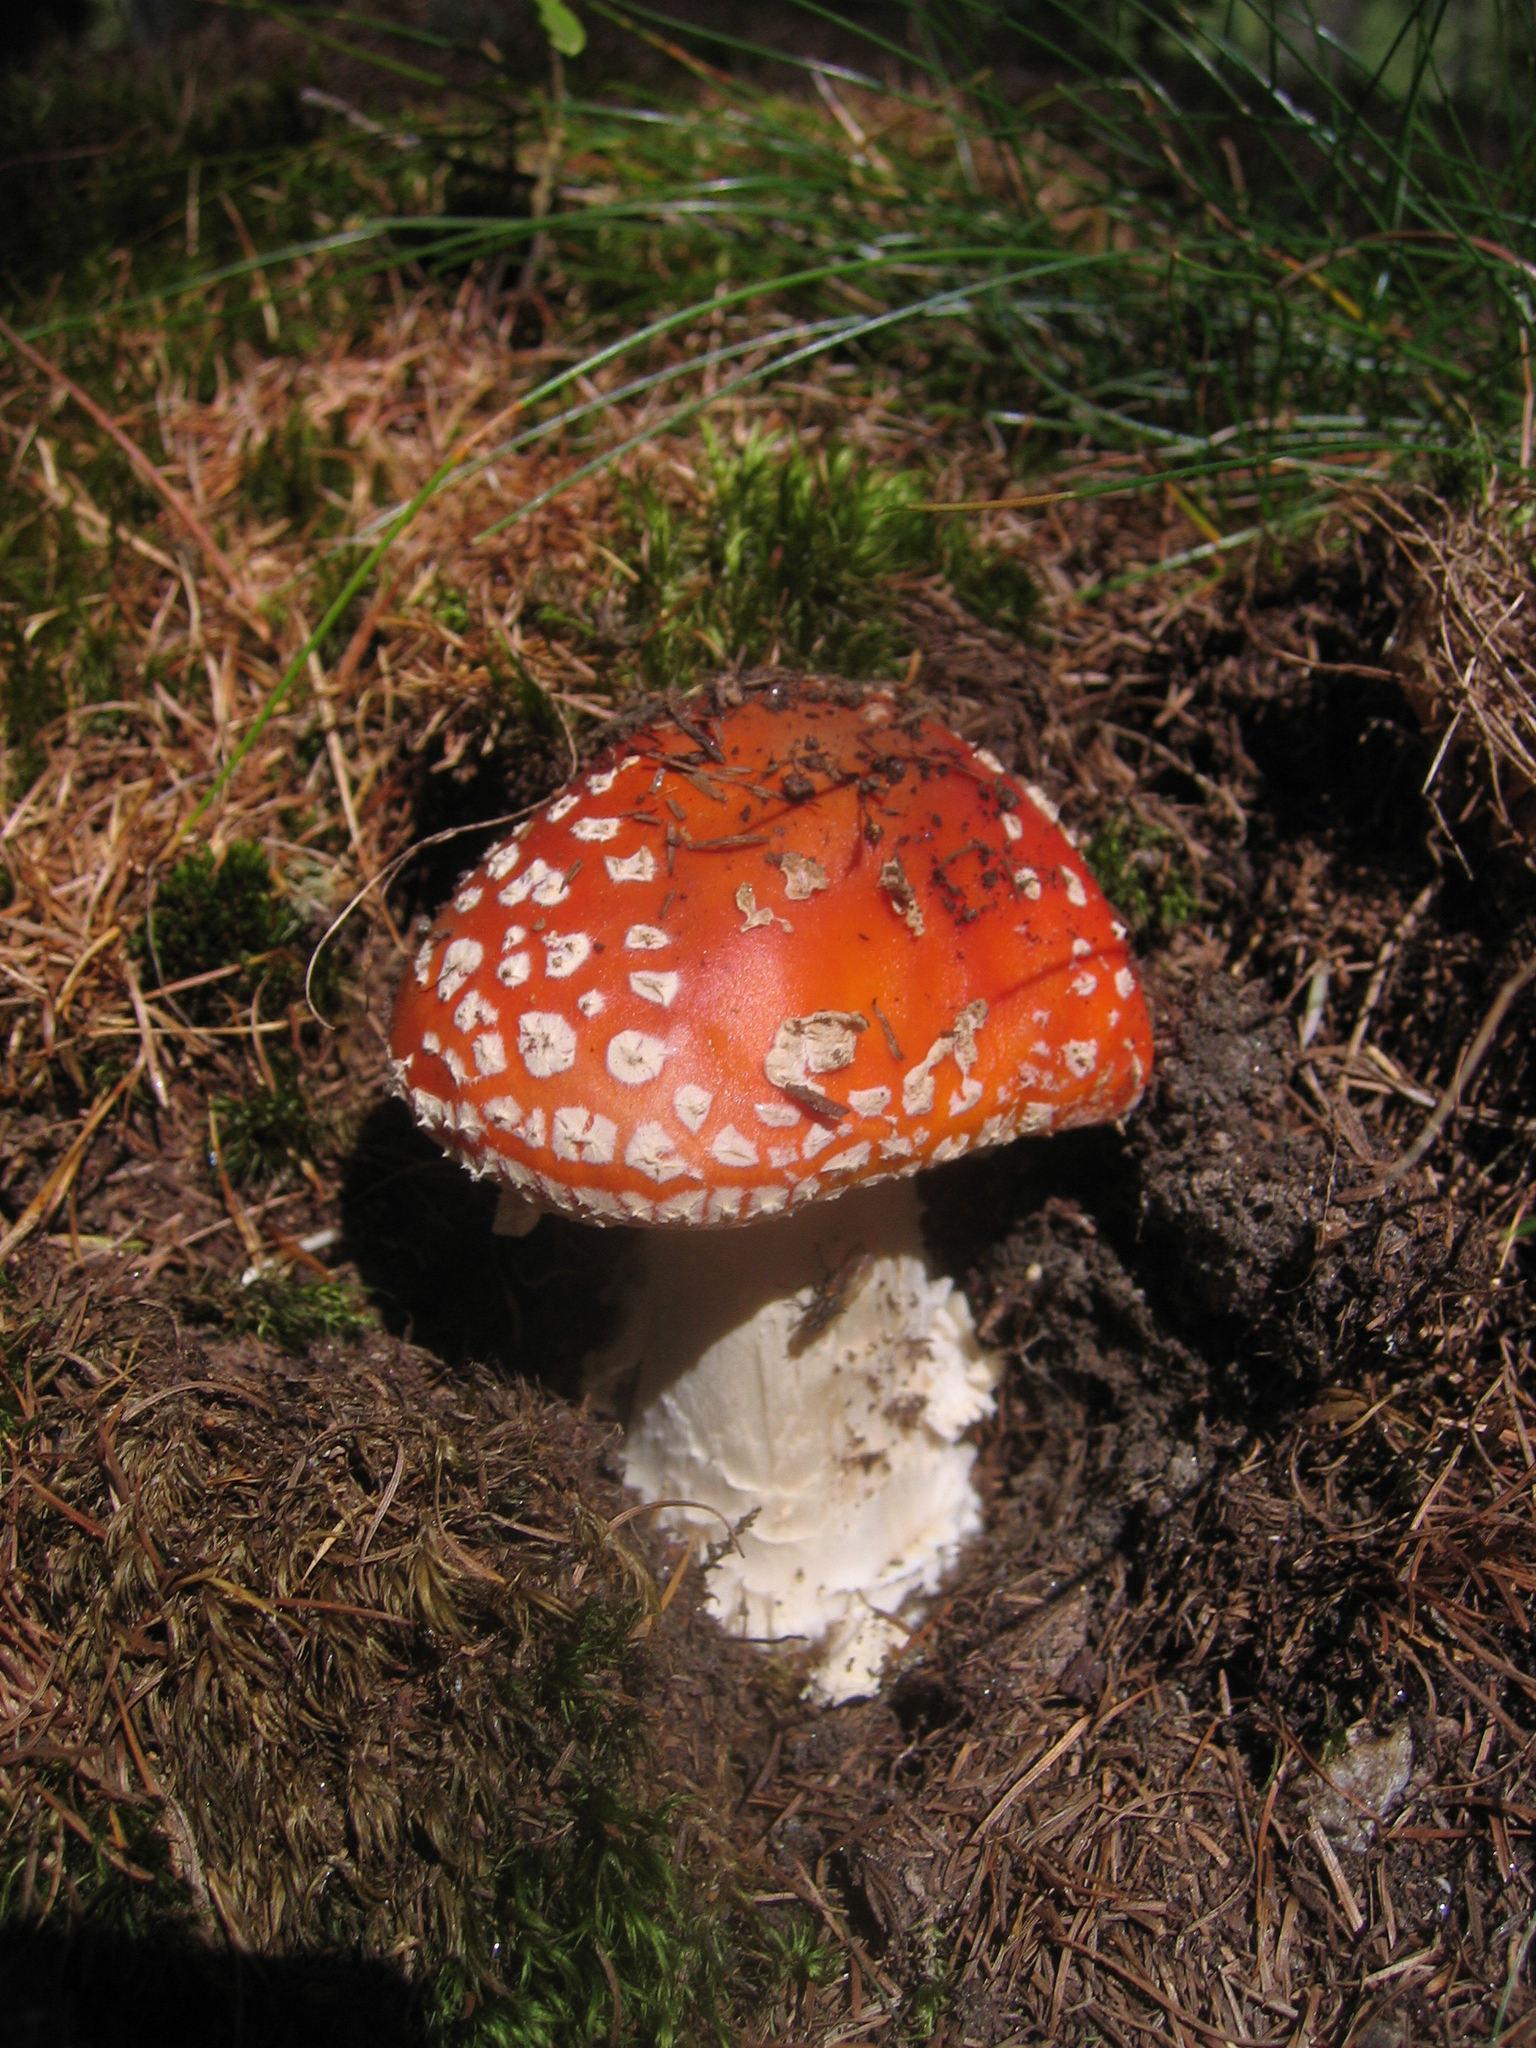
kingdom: Fungi
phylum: Basidiomycota
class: Agaricomycetes
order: Agaricales
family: Amanitaceae
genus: Amanita
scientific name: Amanita muscaria
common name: Fly agaric
